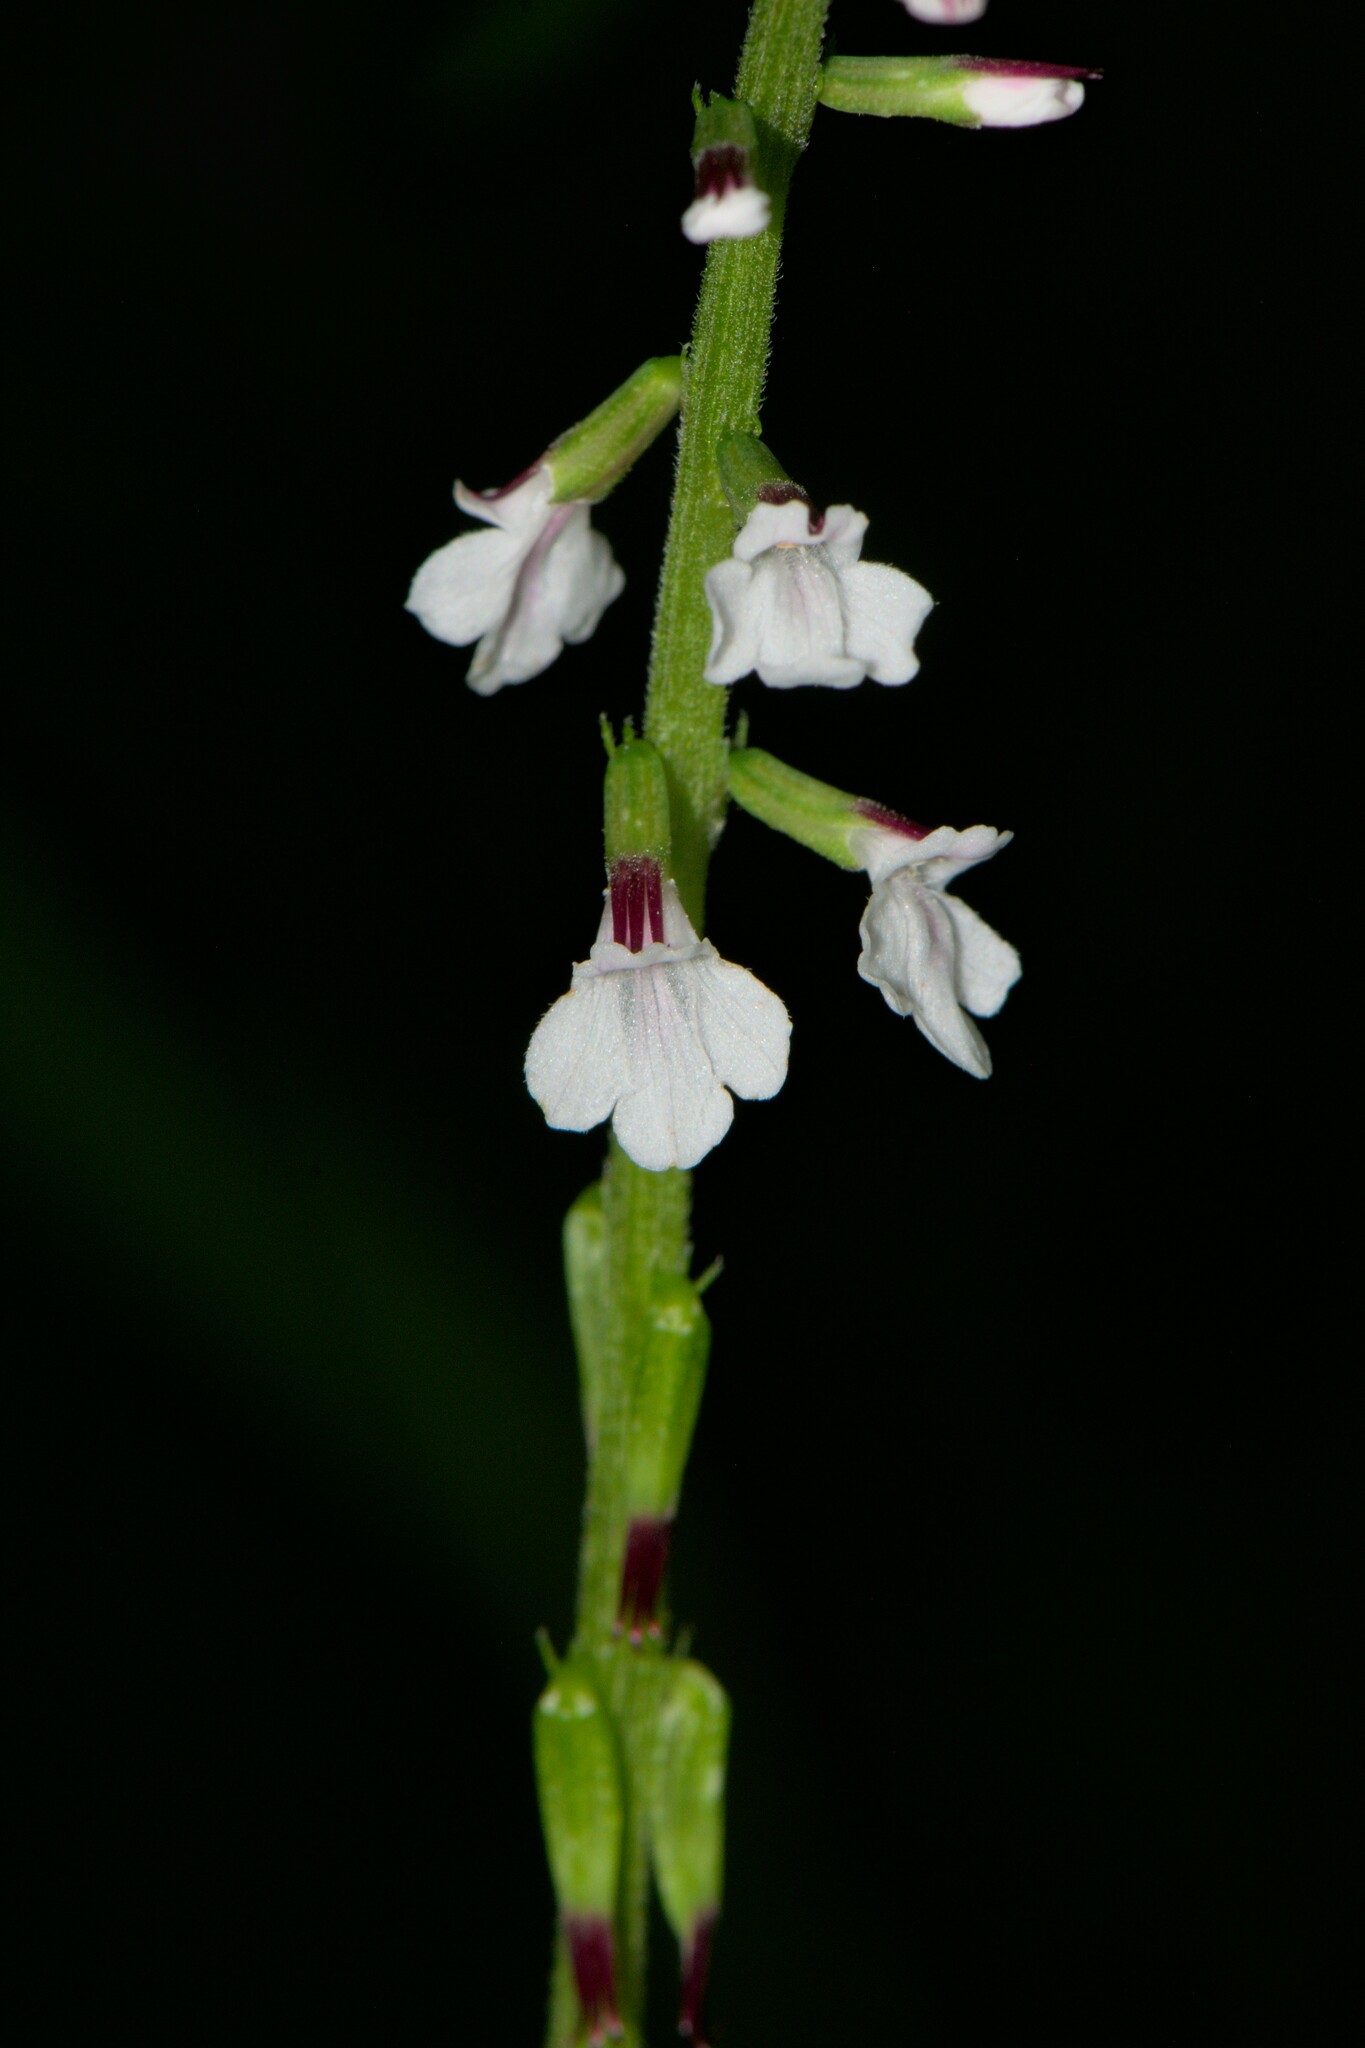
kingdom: Plantae
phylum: Tracheophyta
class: Magnoliopsida
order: Lamiales
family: Phrymaceae
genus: Phryma
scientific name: Phryma leptostachya
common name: American lopseed
